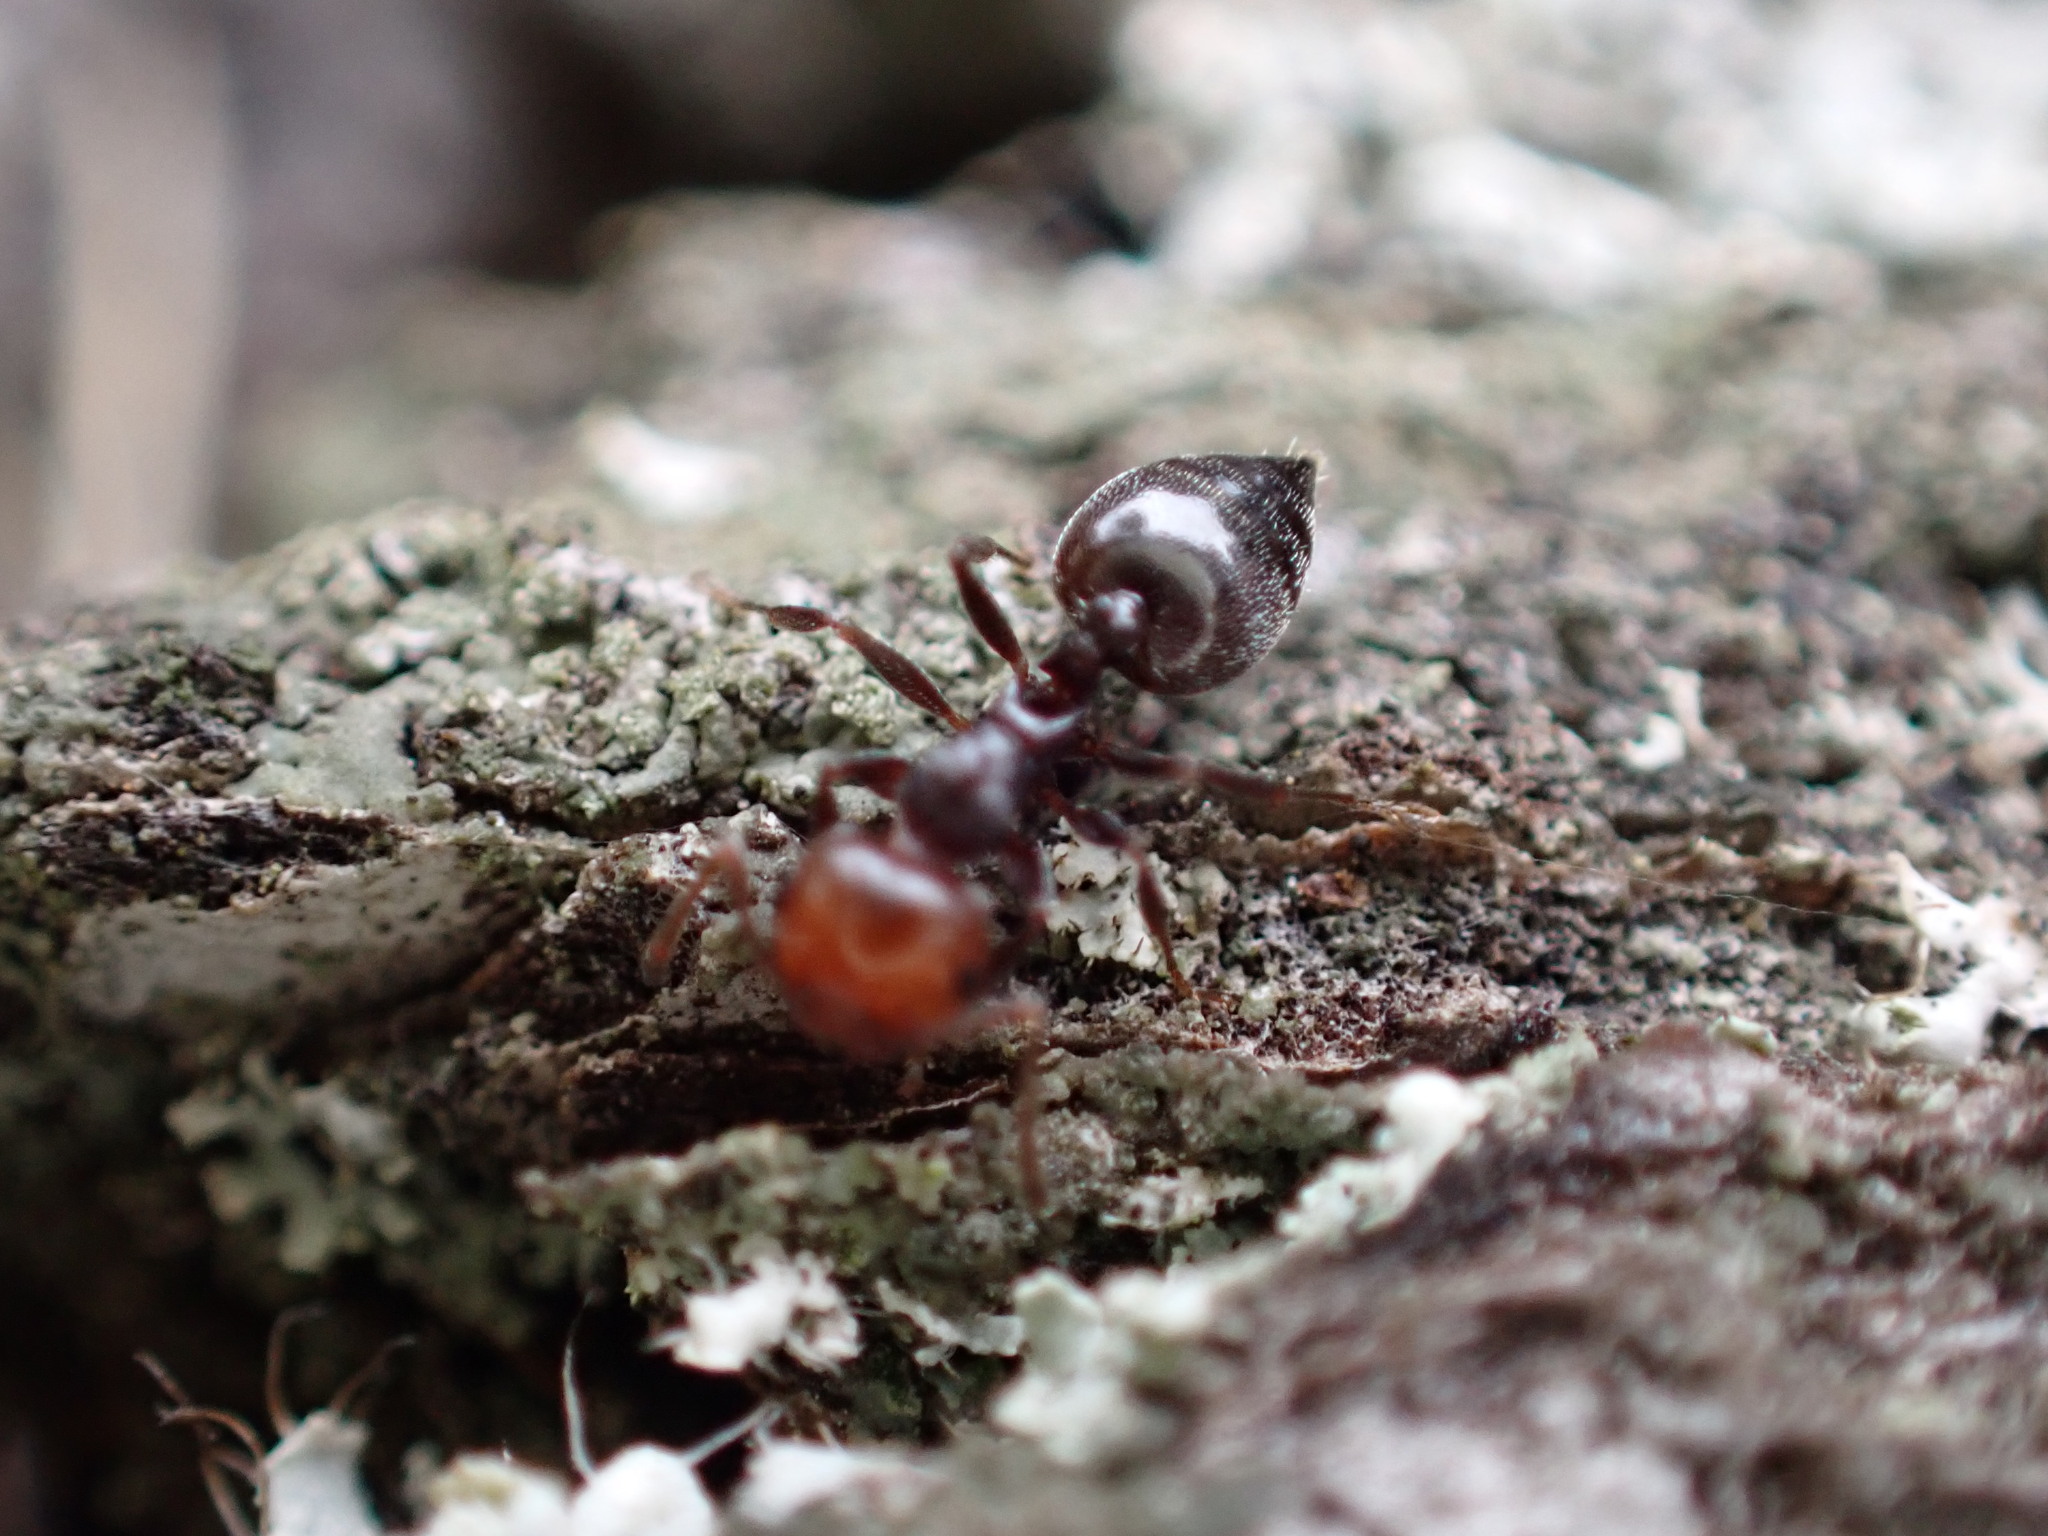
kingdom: Animalia
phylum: Arthropoda
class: Insecta
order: Hymenoptera
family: Formicidae
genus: Crematogaster
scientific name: Crematogaster scutellaris
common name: Fourmi du liège
